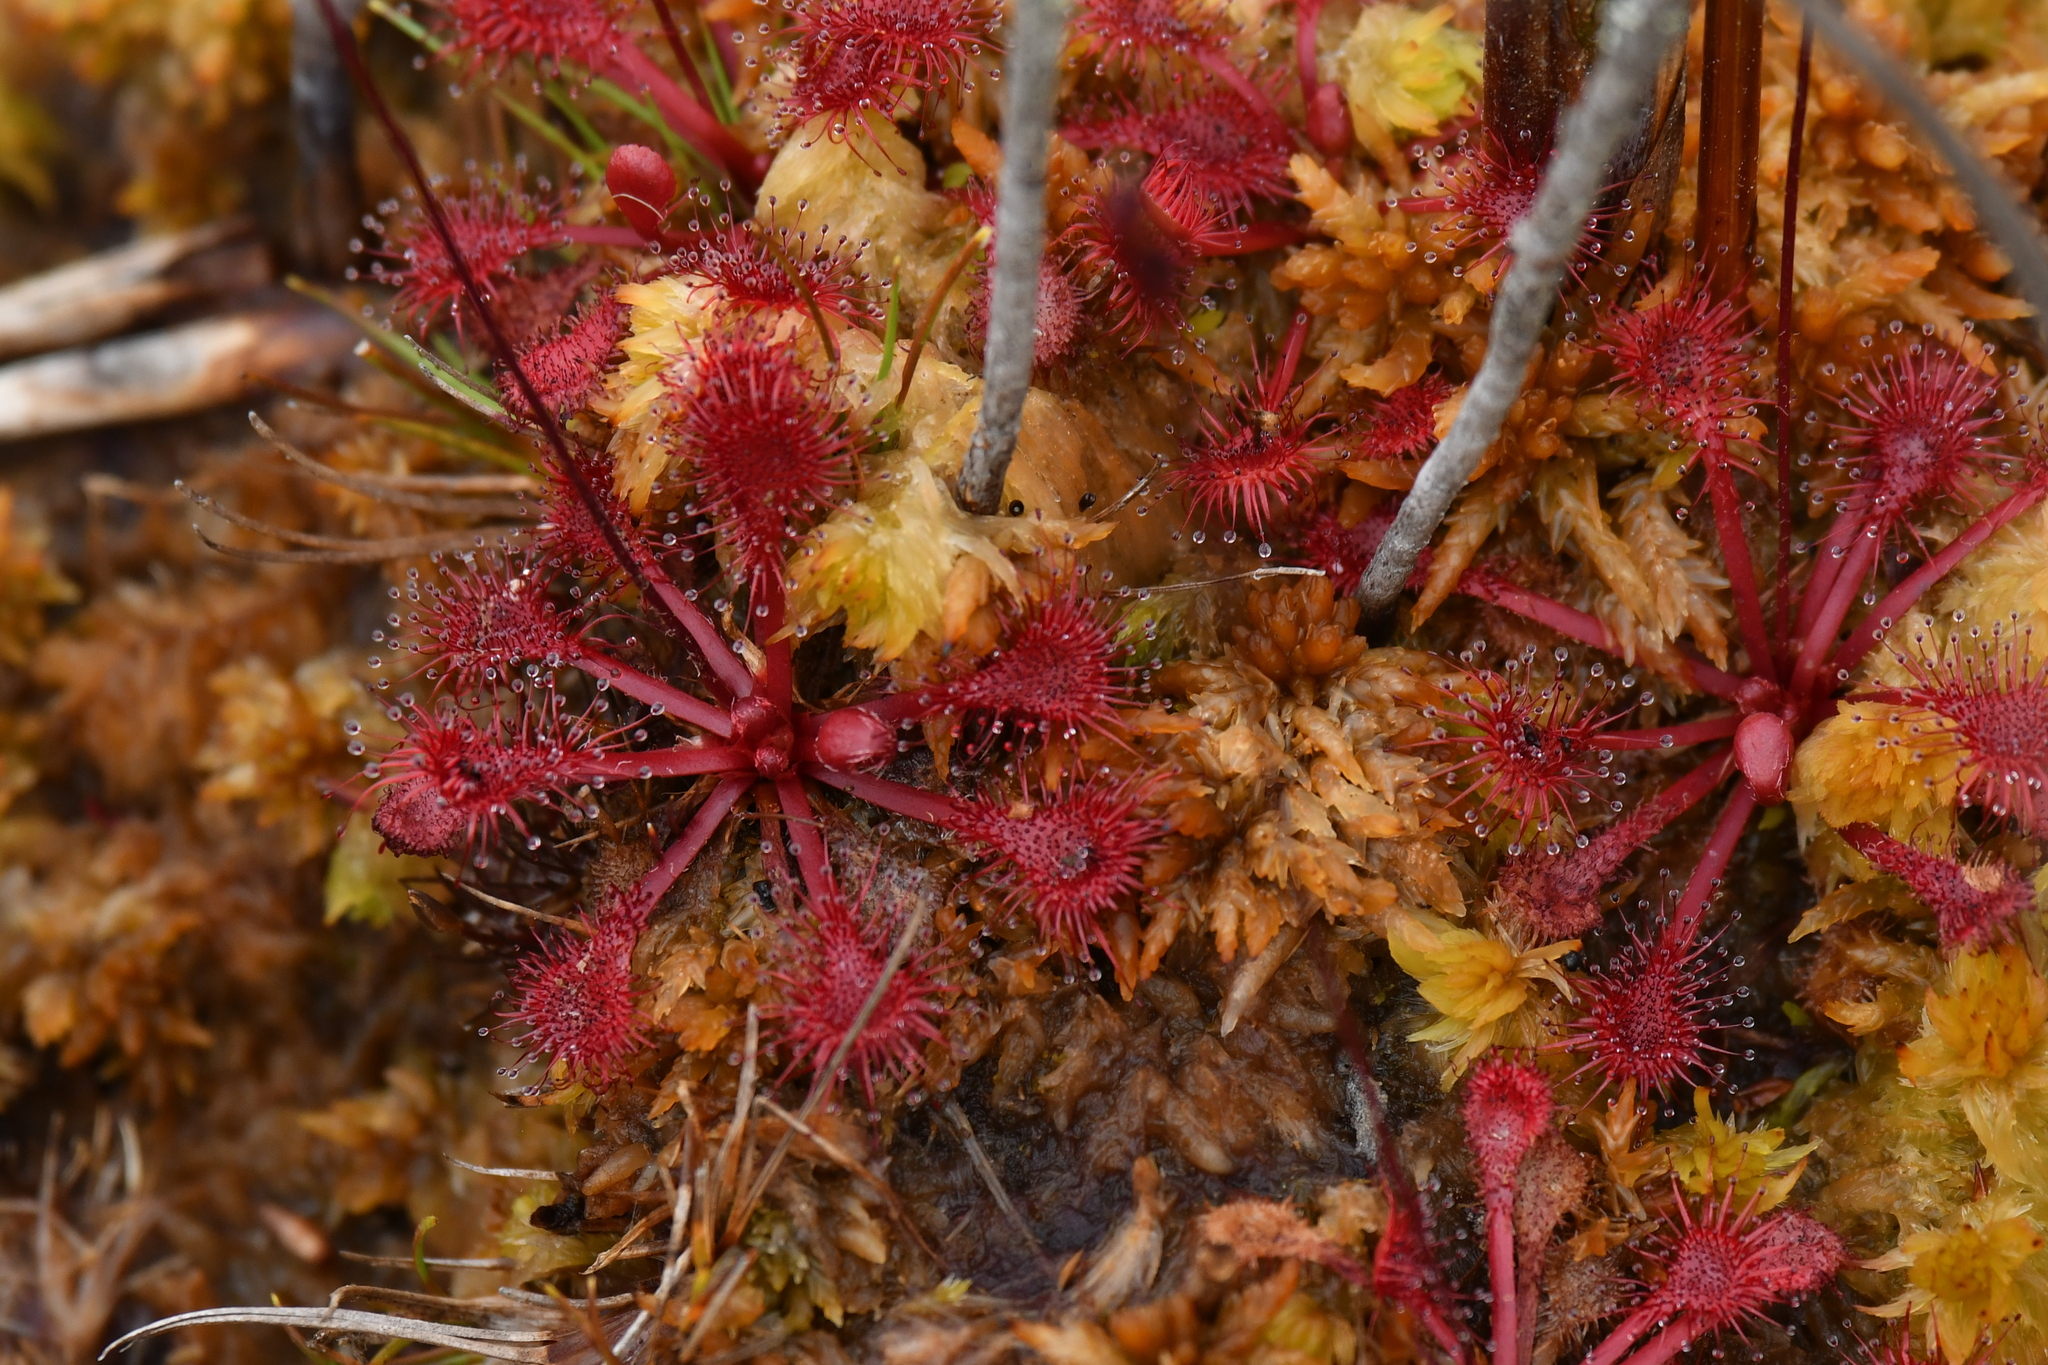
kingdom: Plantae
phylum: Tracheophyta
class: Magnoliopsida
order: Caryophyllales
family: Droseraceae
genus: Drosera
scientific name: Drosera spatulata
